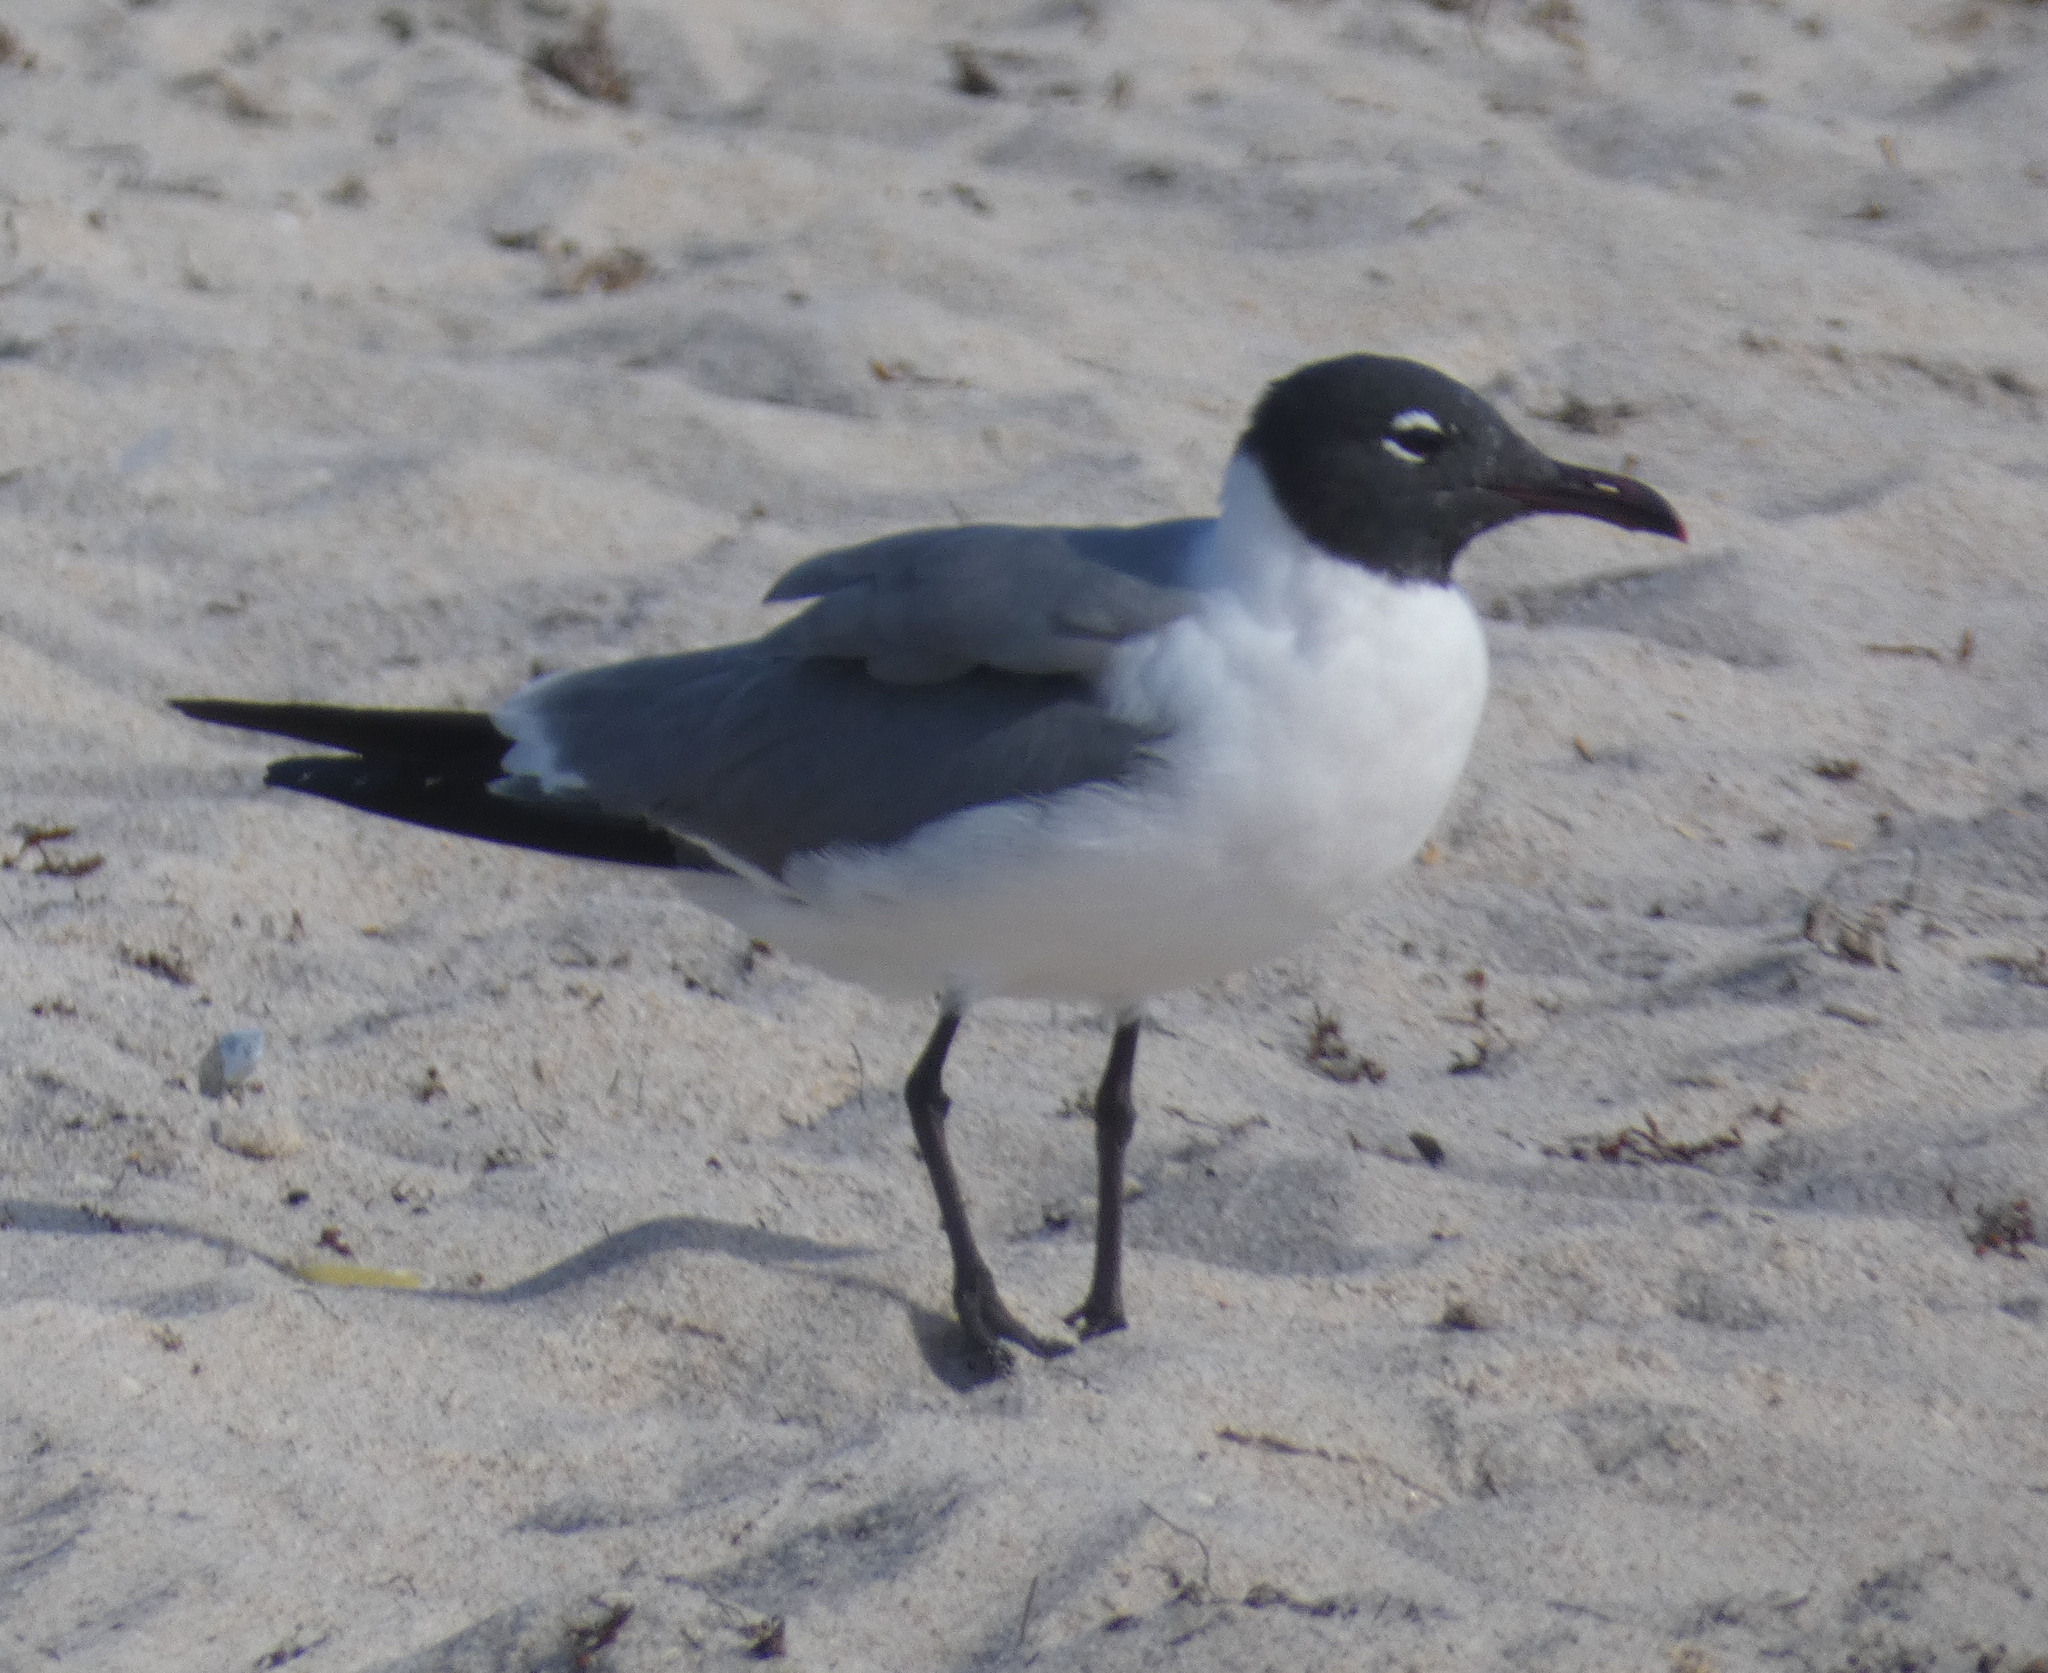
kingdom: Animalia
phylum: Chordata
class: Aves
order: Charadriiformes
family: Laridae
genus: Leucophaeus
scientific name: Leucophaeus atricilla
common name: Laughing gull
